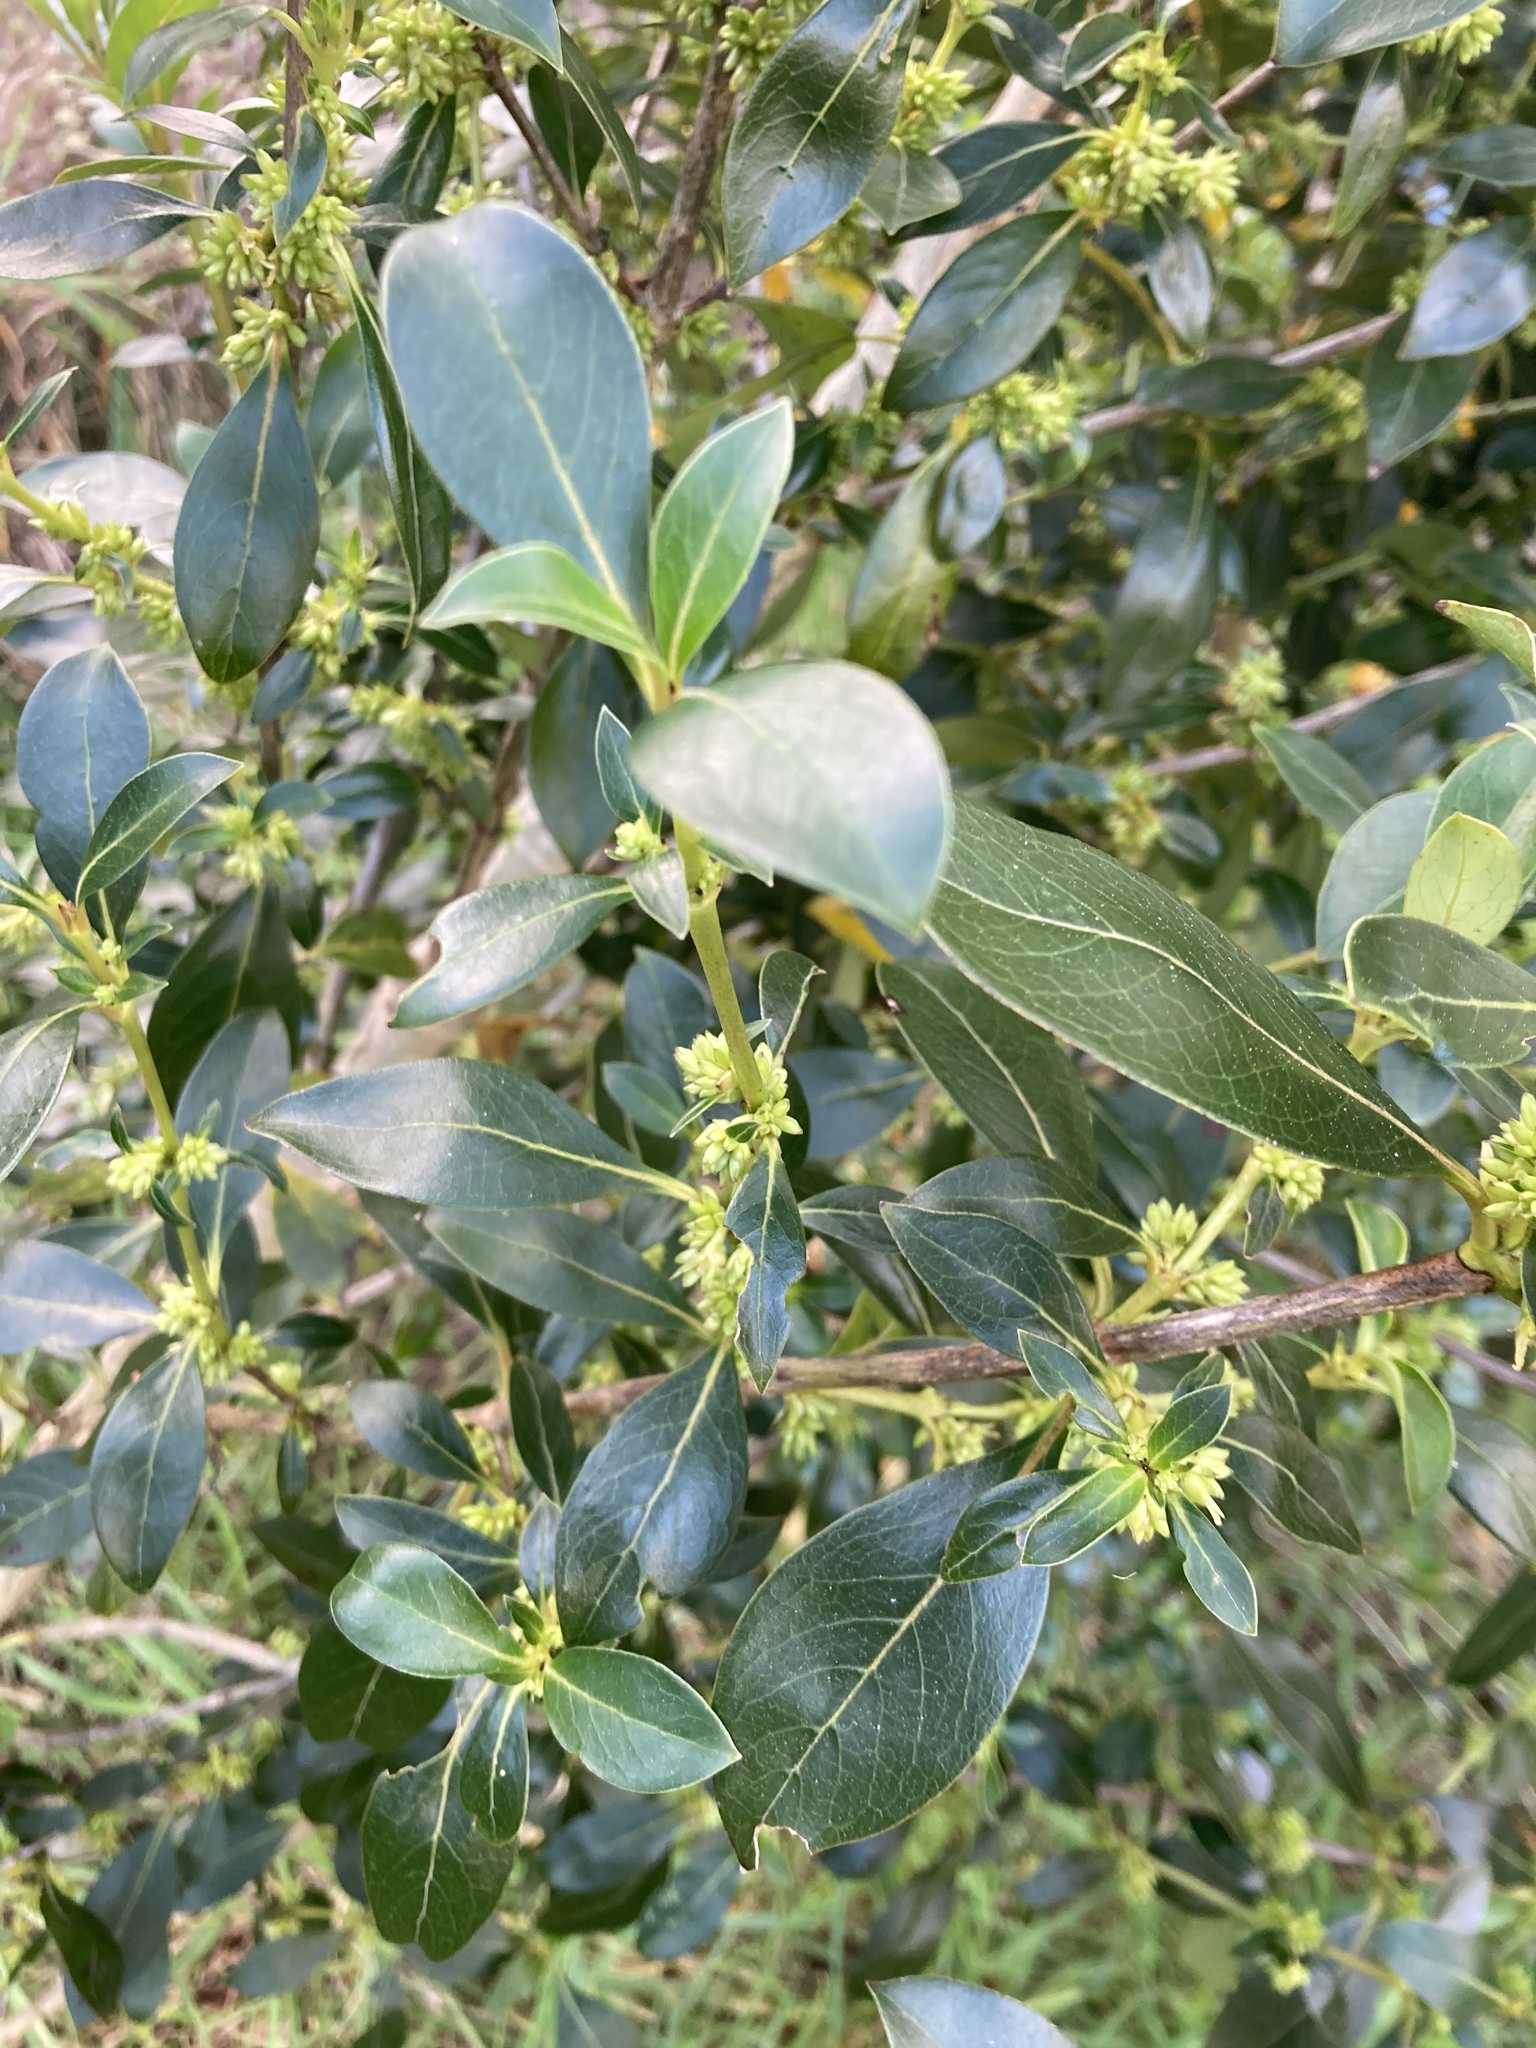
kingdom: Plantae
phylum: Tracheophyta
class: Magnoliopsida
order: Gentianales
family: Rubiaceae
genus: Coprosma
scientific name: Coprosma robusta
